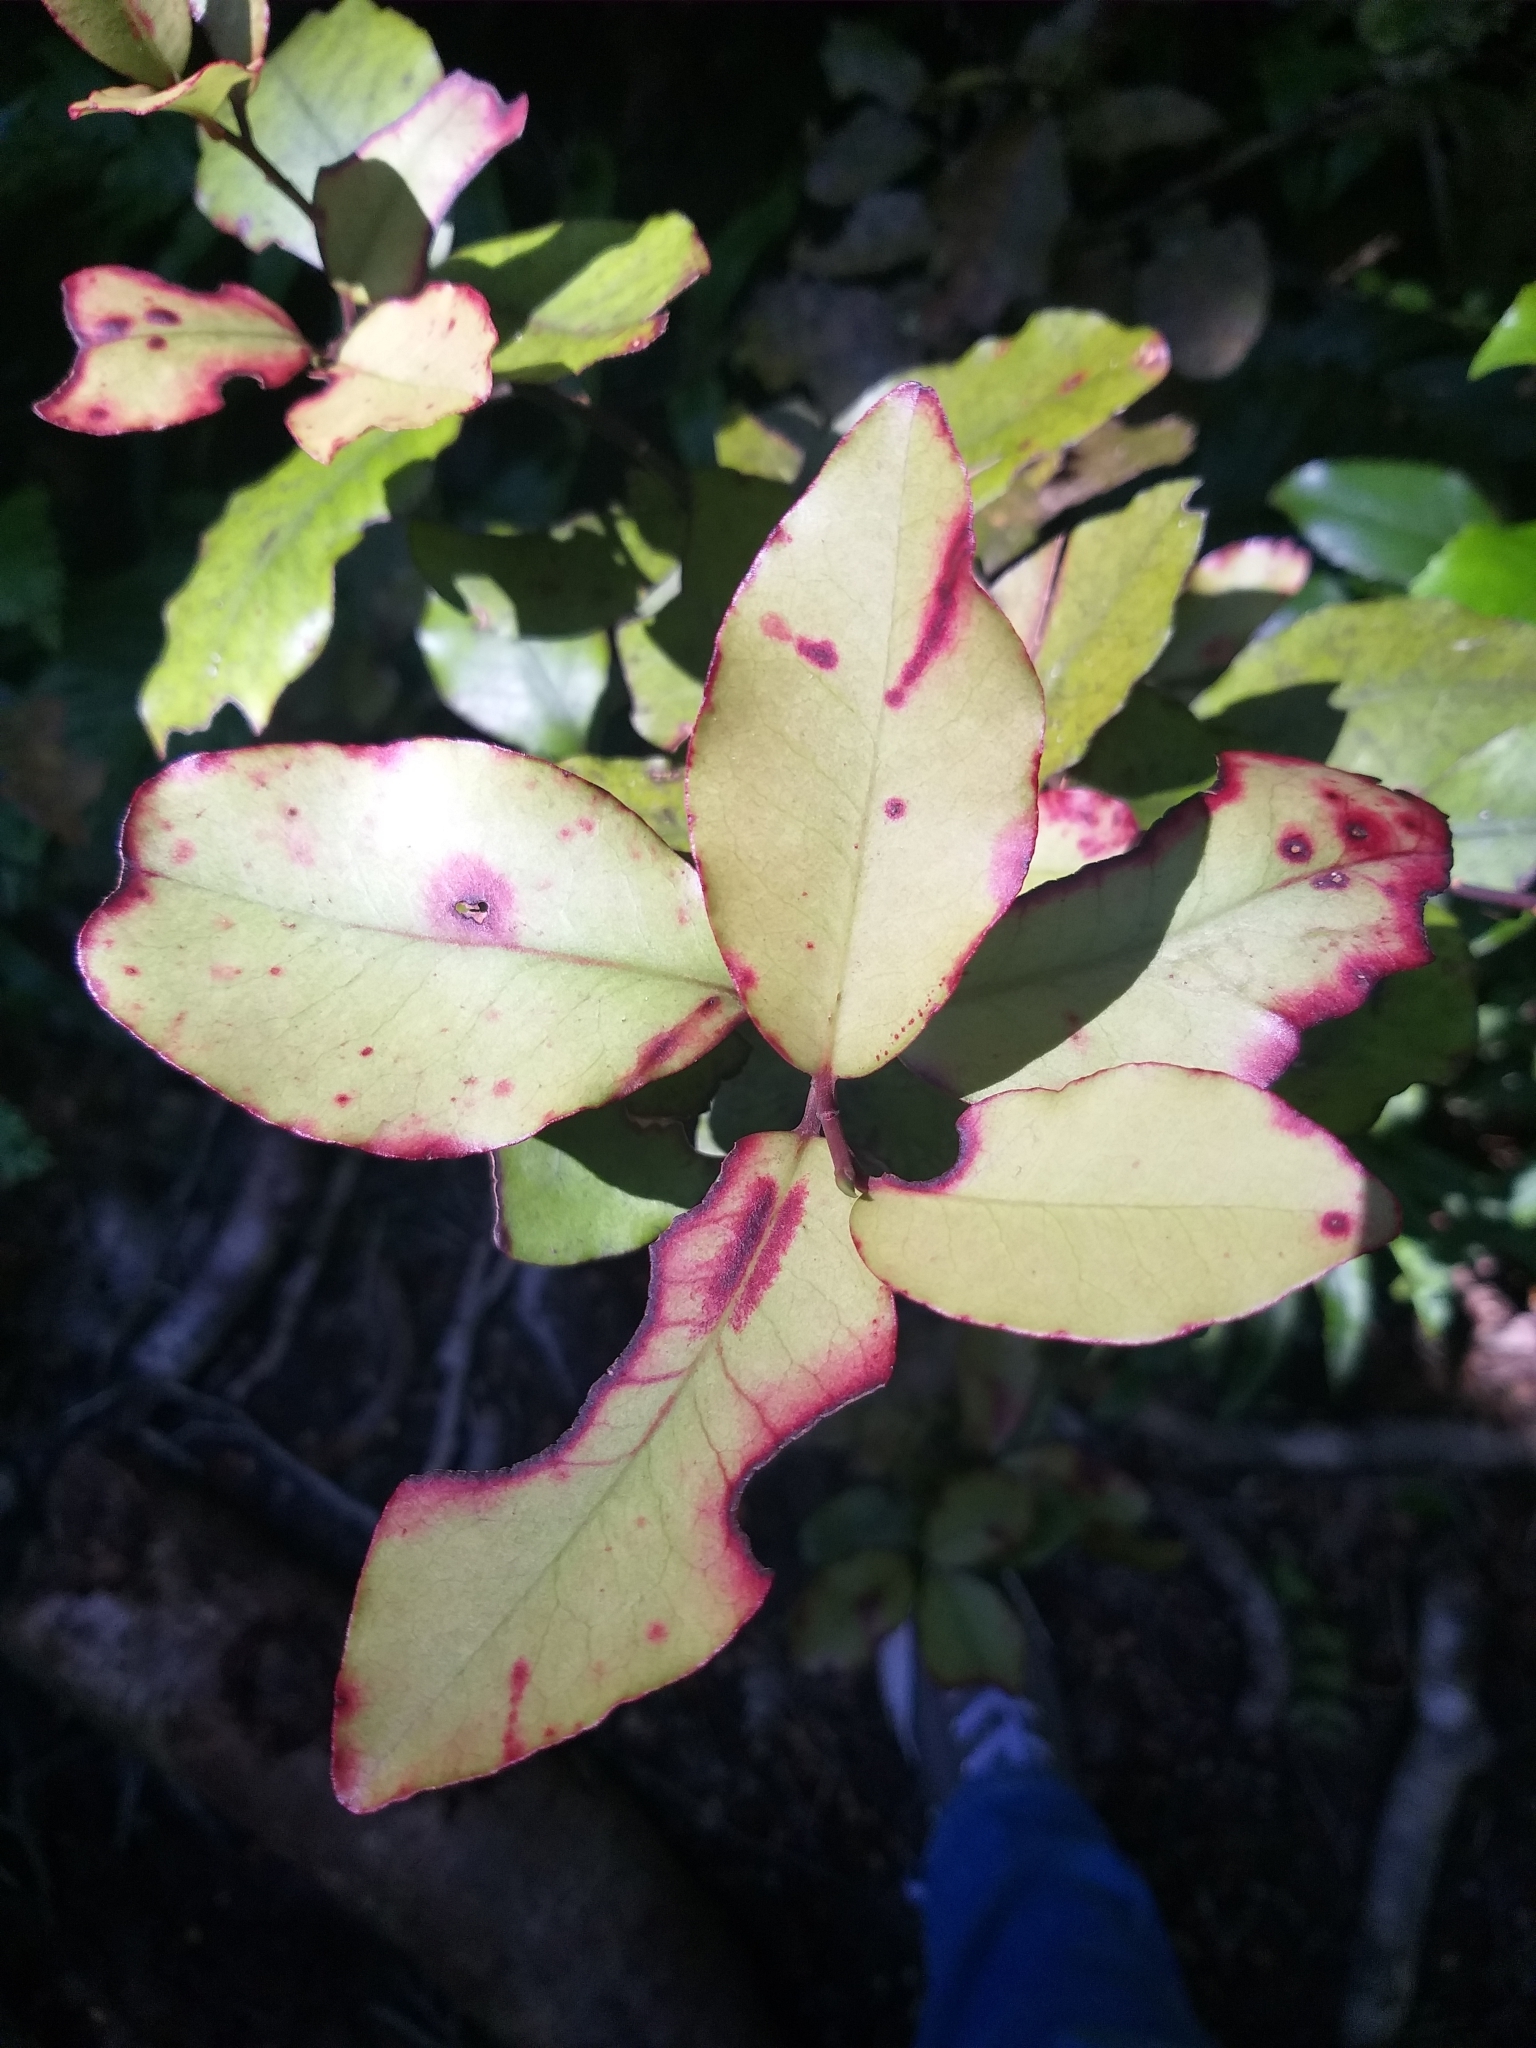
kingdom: Plantae
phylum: Tracheophyta
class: Magnoliopsida
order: Canellales
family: Winteraceae
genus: Pseudowintera
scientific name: Pseudowintera colorata
